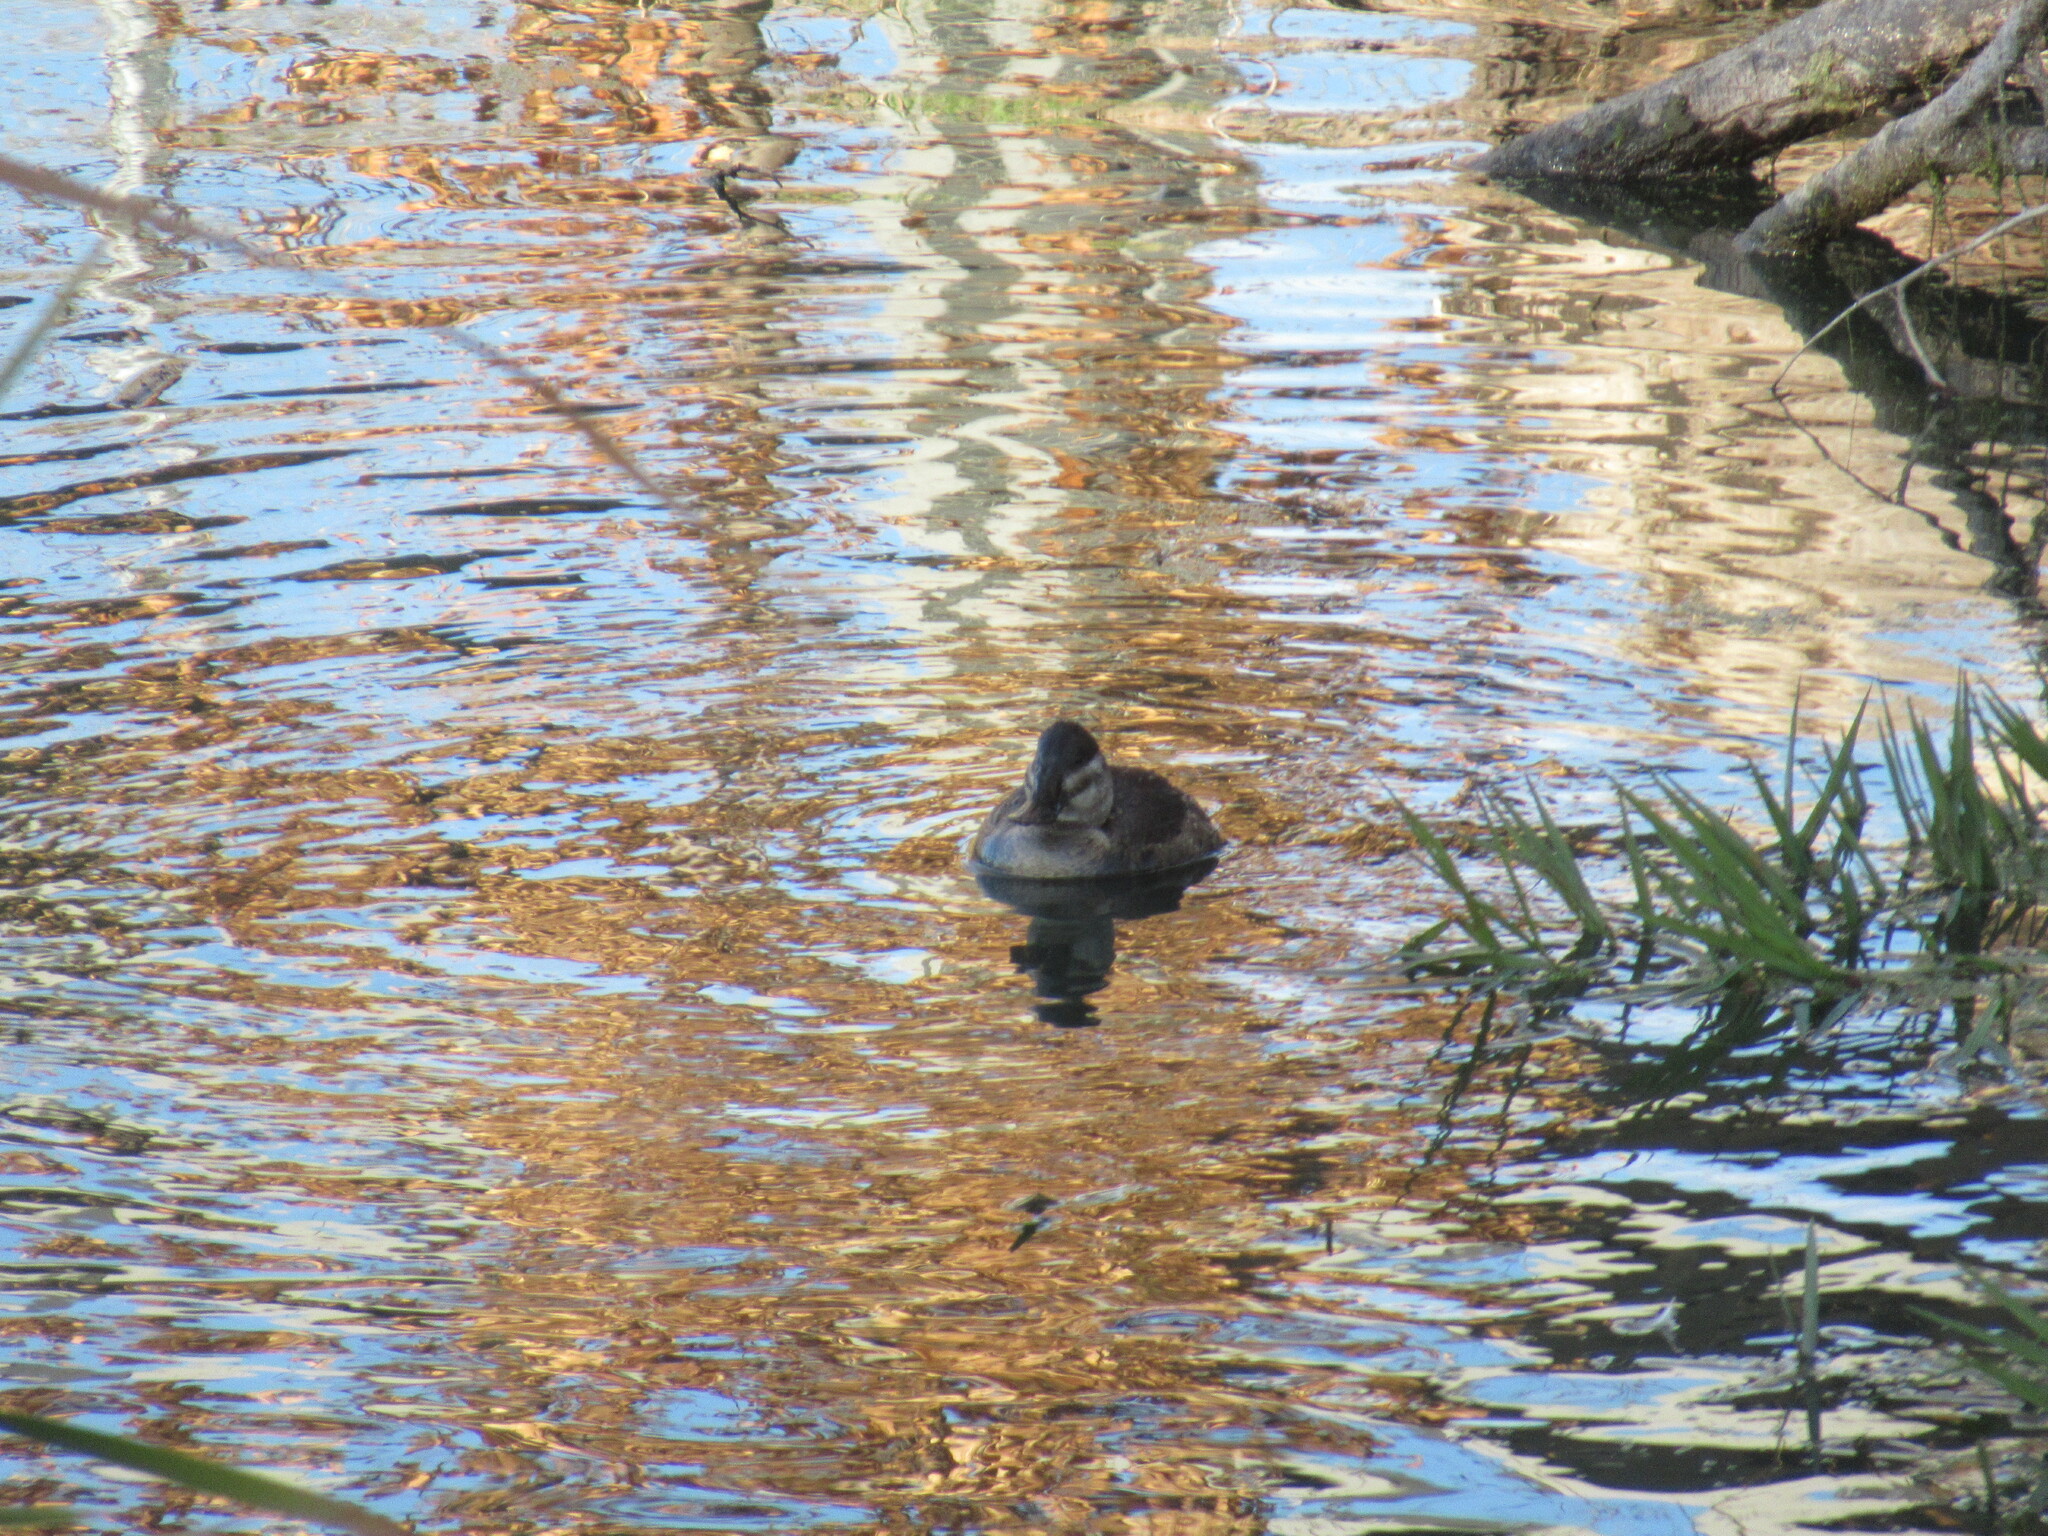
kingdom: Animalia
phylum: Chordata
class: Aves
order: Anseriformes
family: Anatidae
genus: Oxyura
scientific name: Oxyura jamaicensis
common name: Ruddy duck
